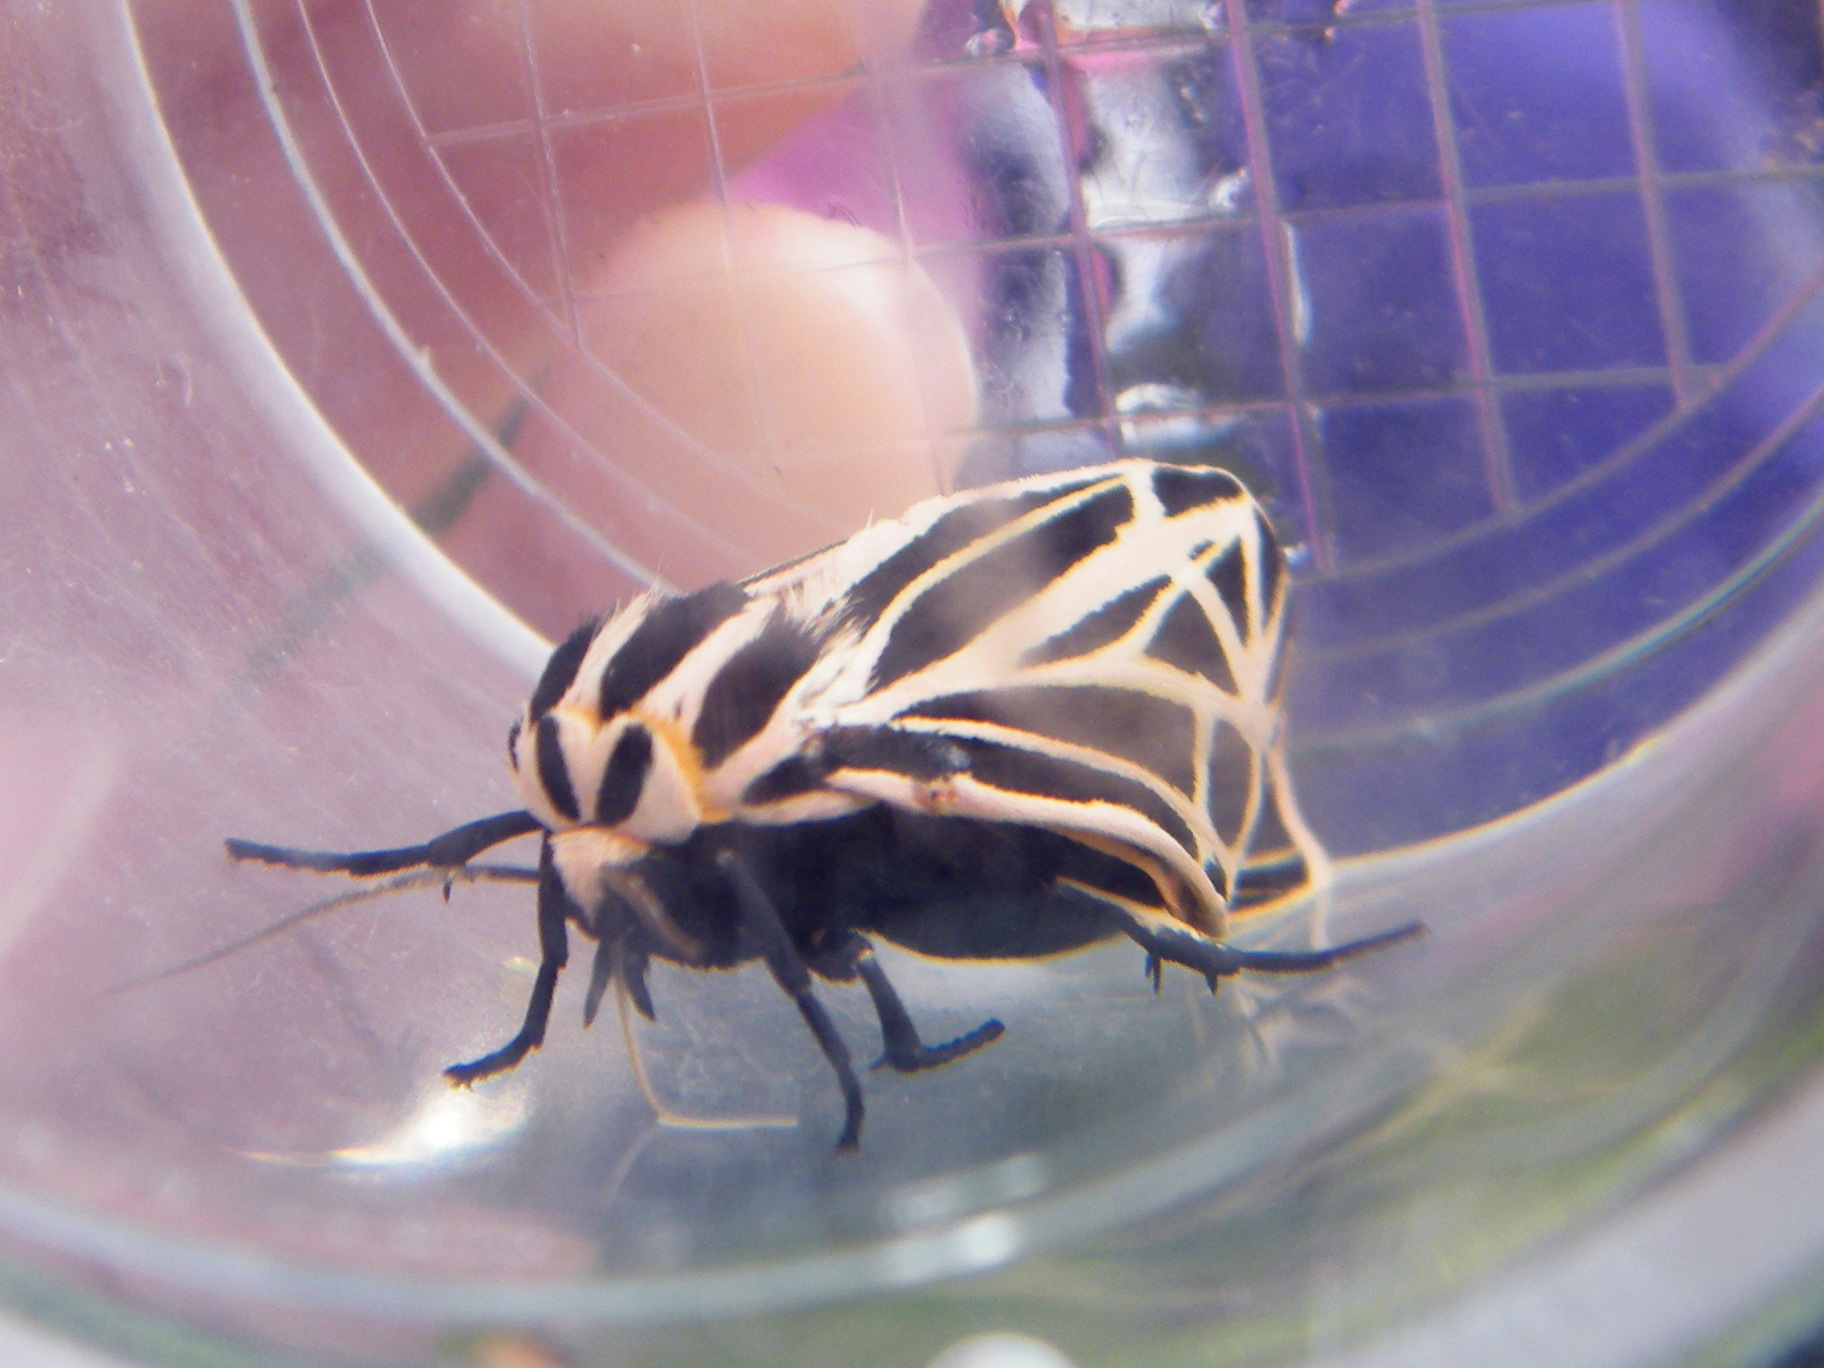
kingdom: Animalia
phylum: Arthropoda
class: Insecta
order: Lepidoptera
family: Erebidae
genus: Grammia
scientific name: Grammia virgo
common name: Virgin tiger moth
